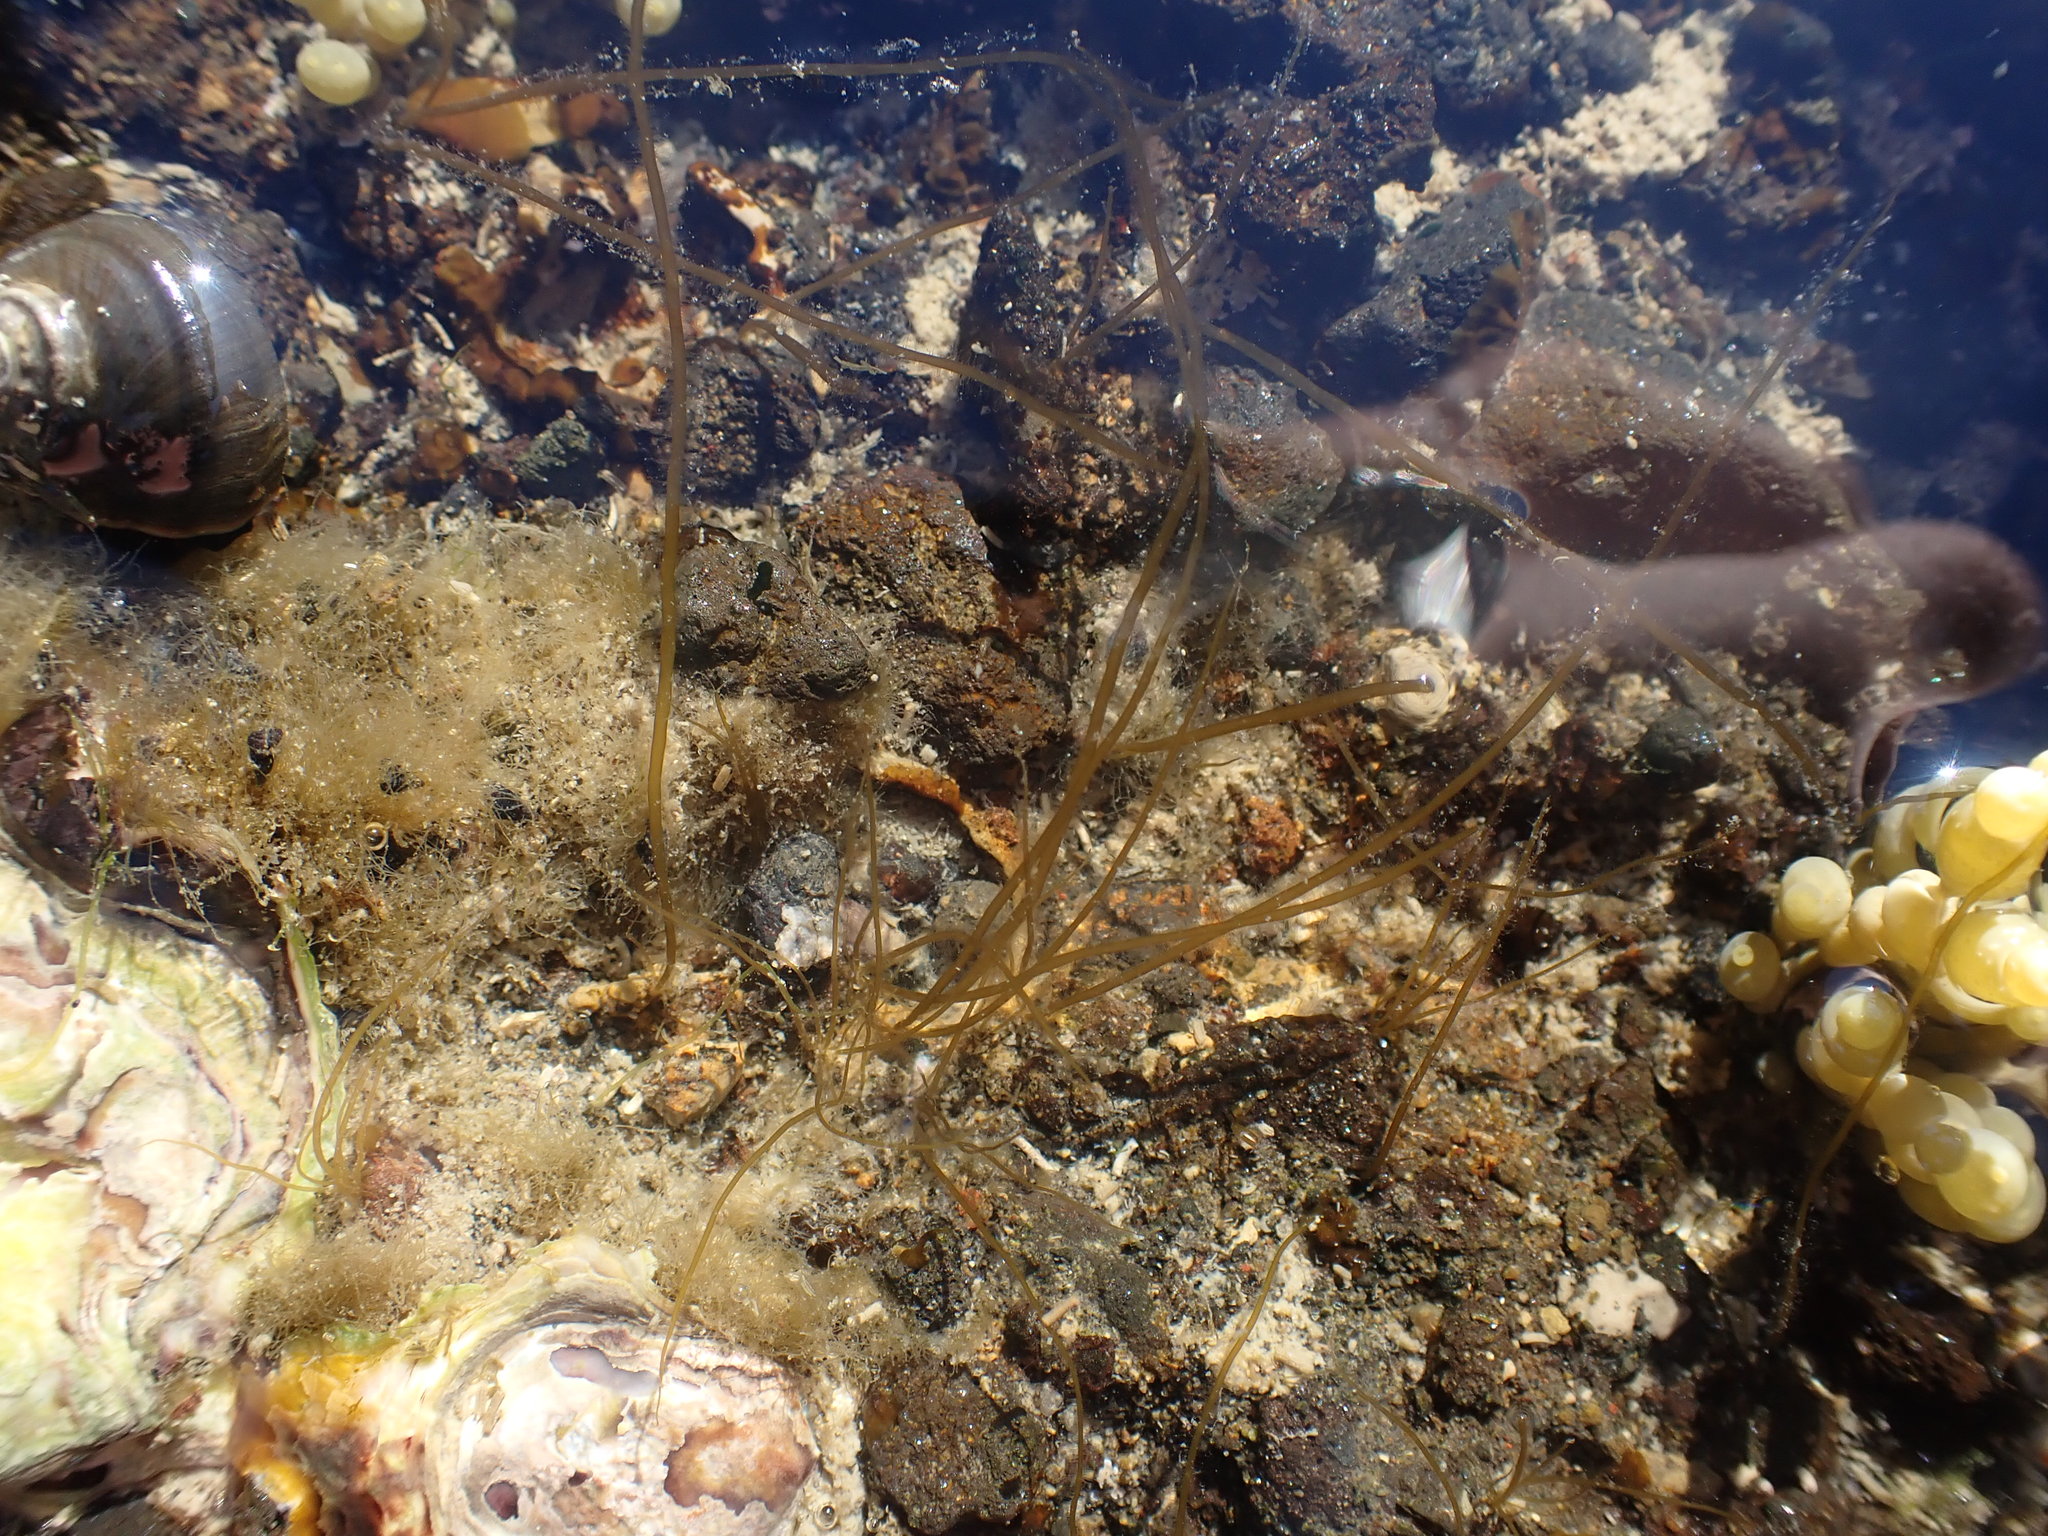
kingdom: Chromista
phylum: Ochrophyta
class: Phaeophyceae
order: Scytosiphonales
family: Scytosiphonaceae
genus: Scytosiphon
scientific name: Scytosiphon lomentaria
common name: Beanweed
